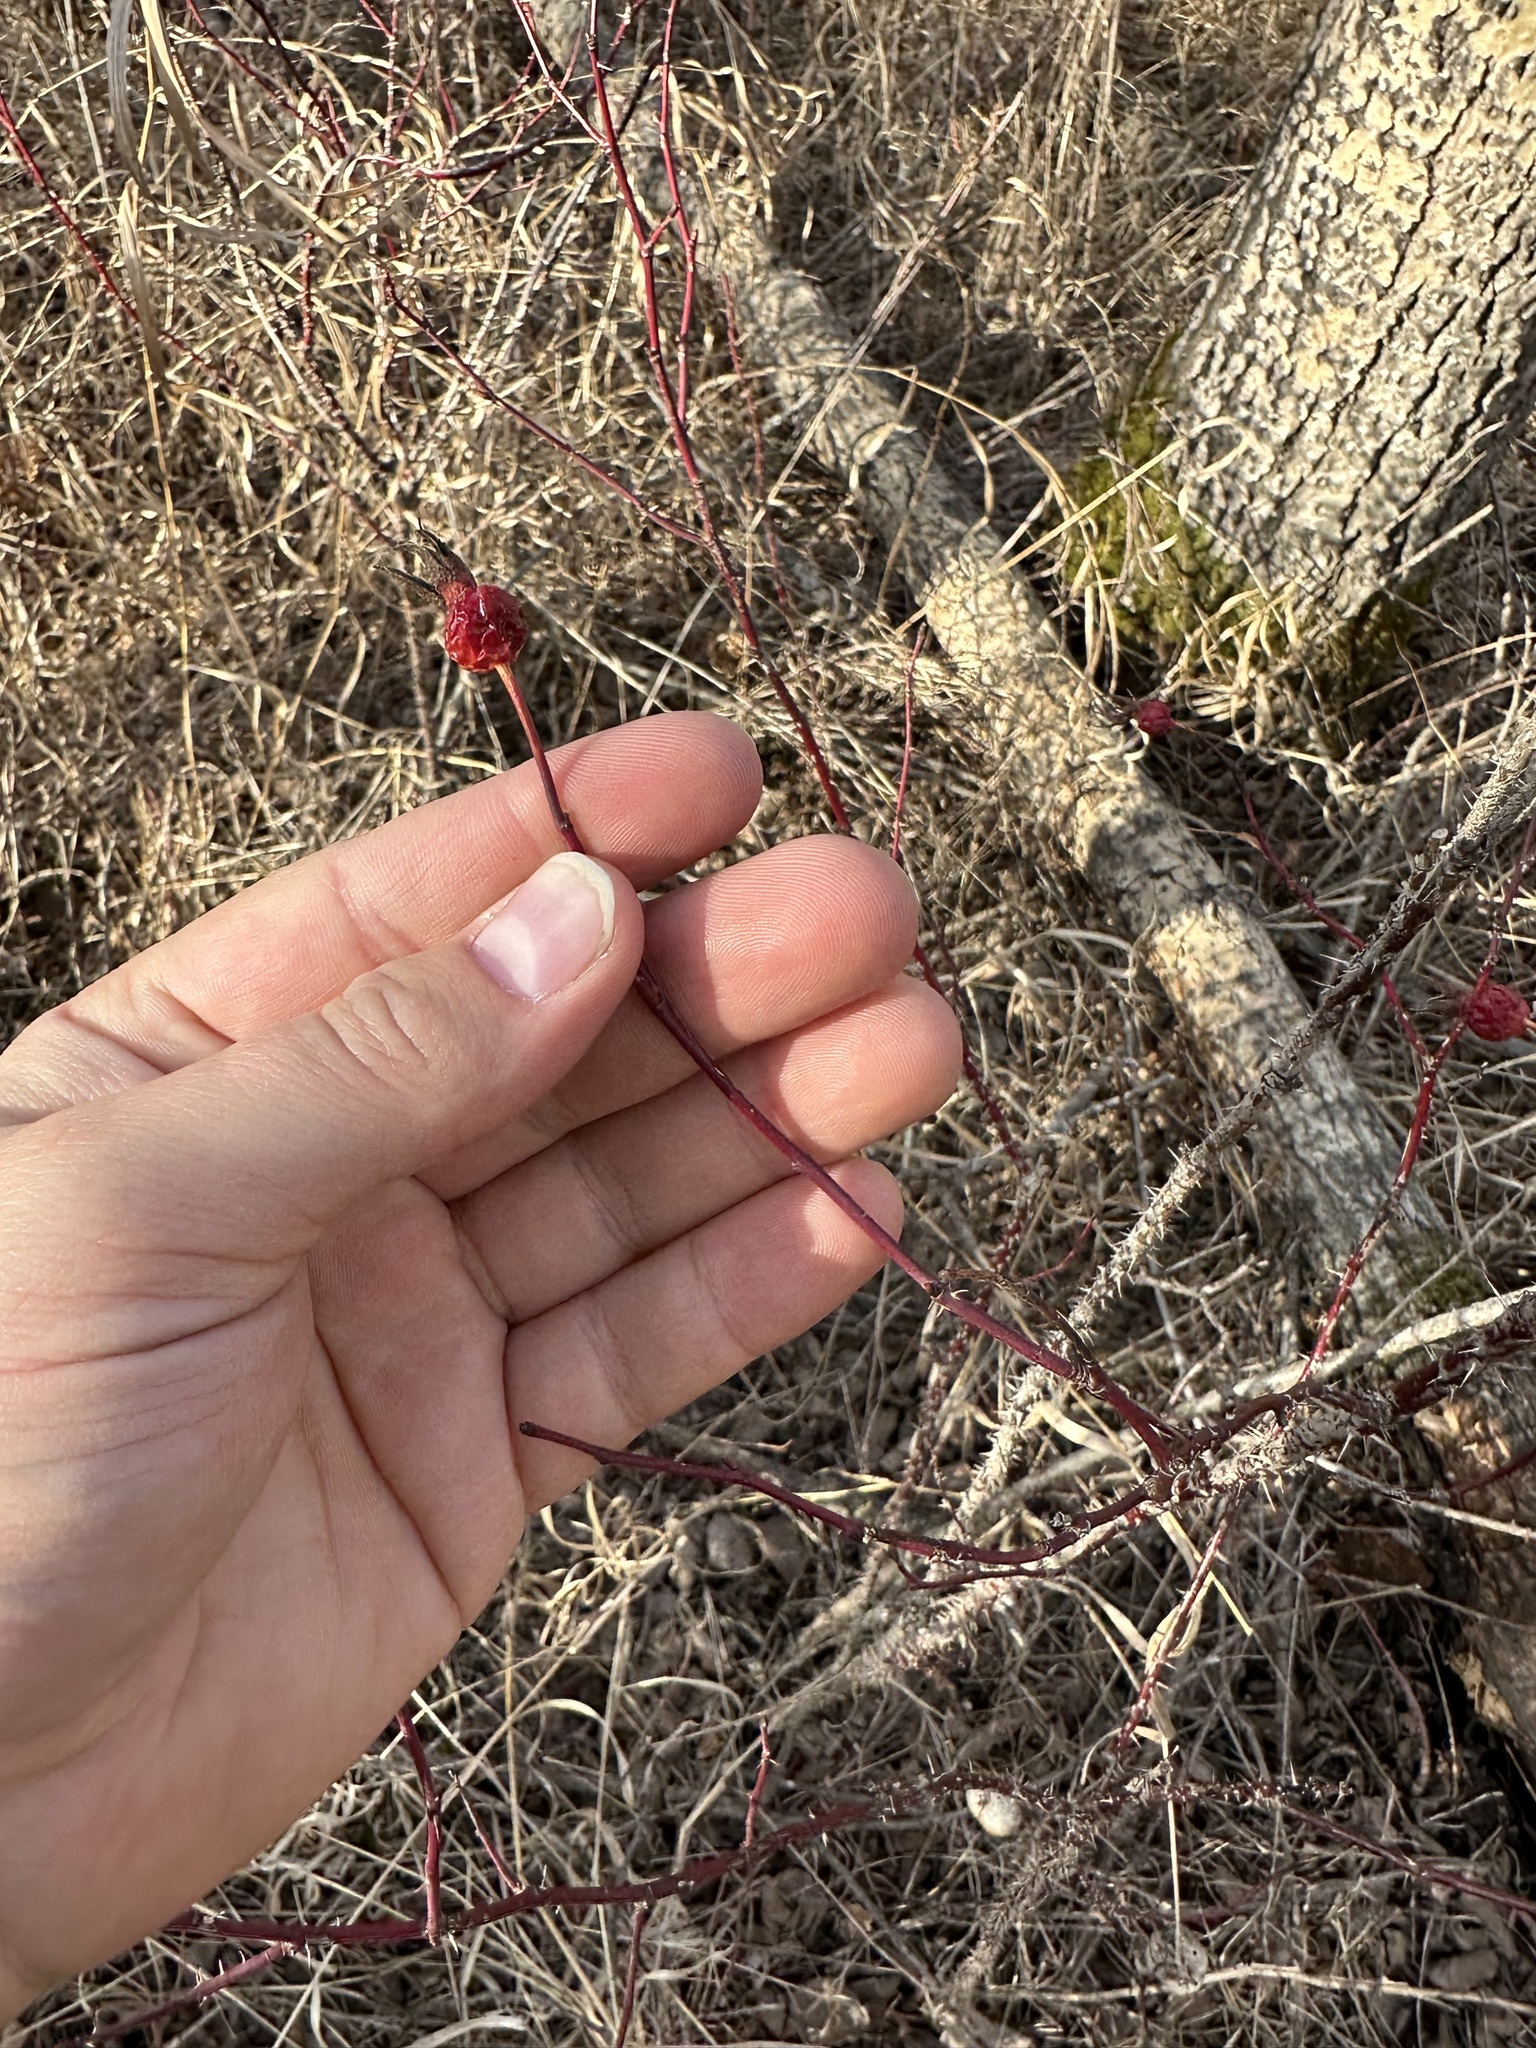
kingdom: Plantae
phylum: Tracheophyta
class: Magnoliopsida
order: Rosales
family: Rosaceae
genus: Rosa
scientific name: Rosa woodsii
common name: Woods's rose
